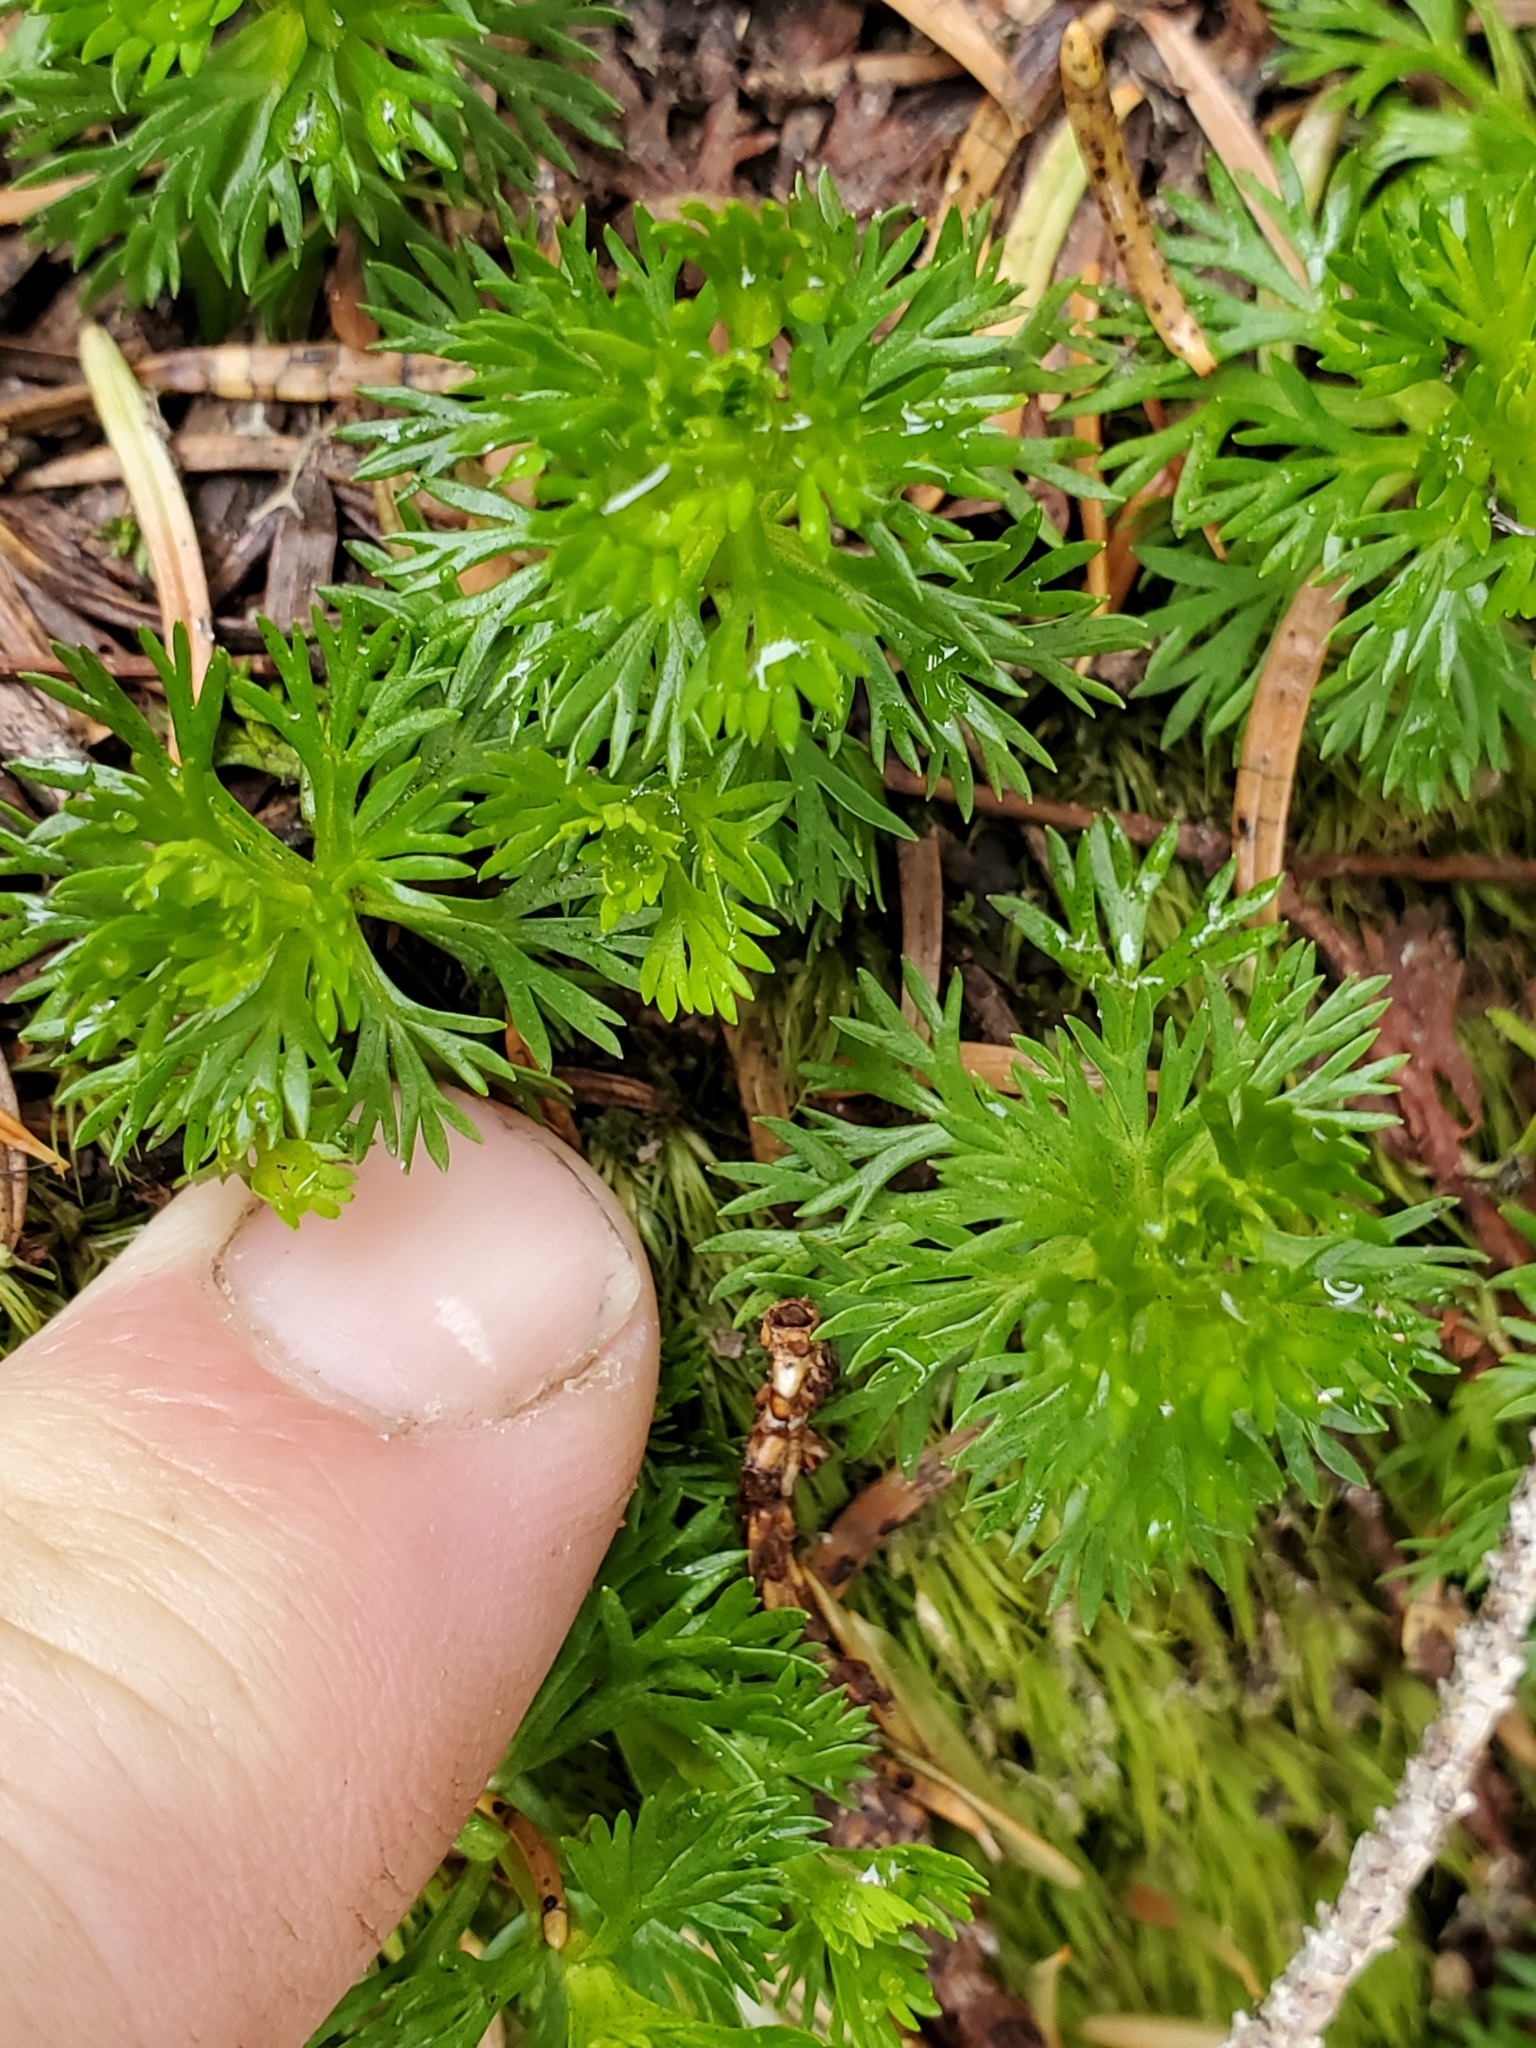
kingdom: Plantae
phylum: Tracheophyta
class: Magnoliopsida
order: Rosales
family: Rosaceae
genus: Luetkea
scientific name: Luetkea pectinata
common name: Partridgefoot
